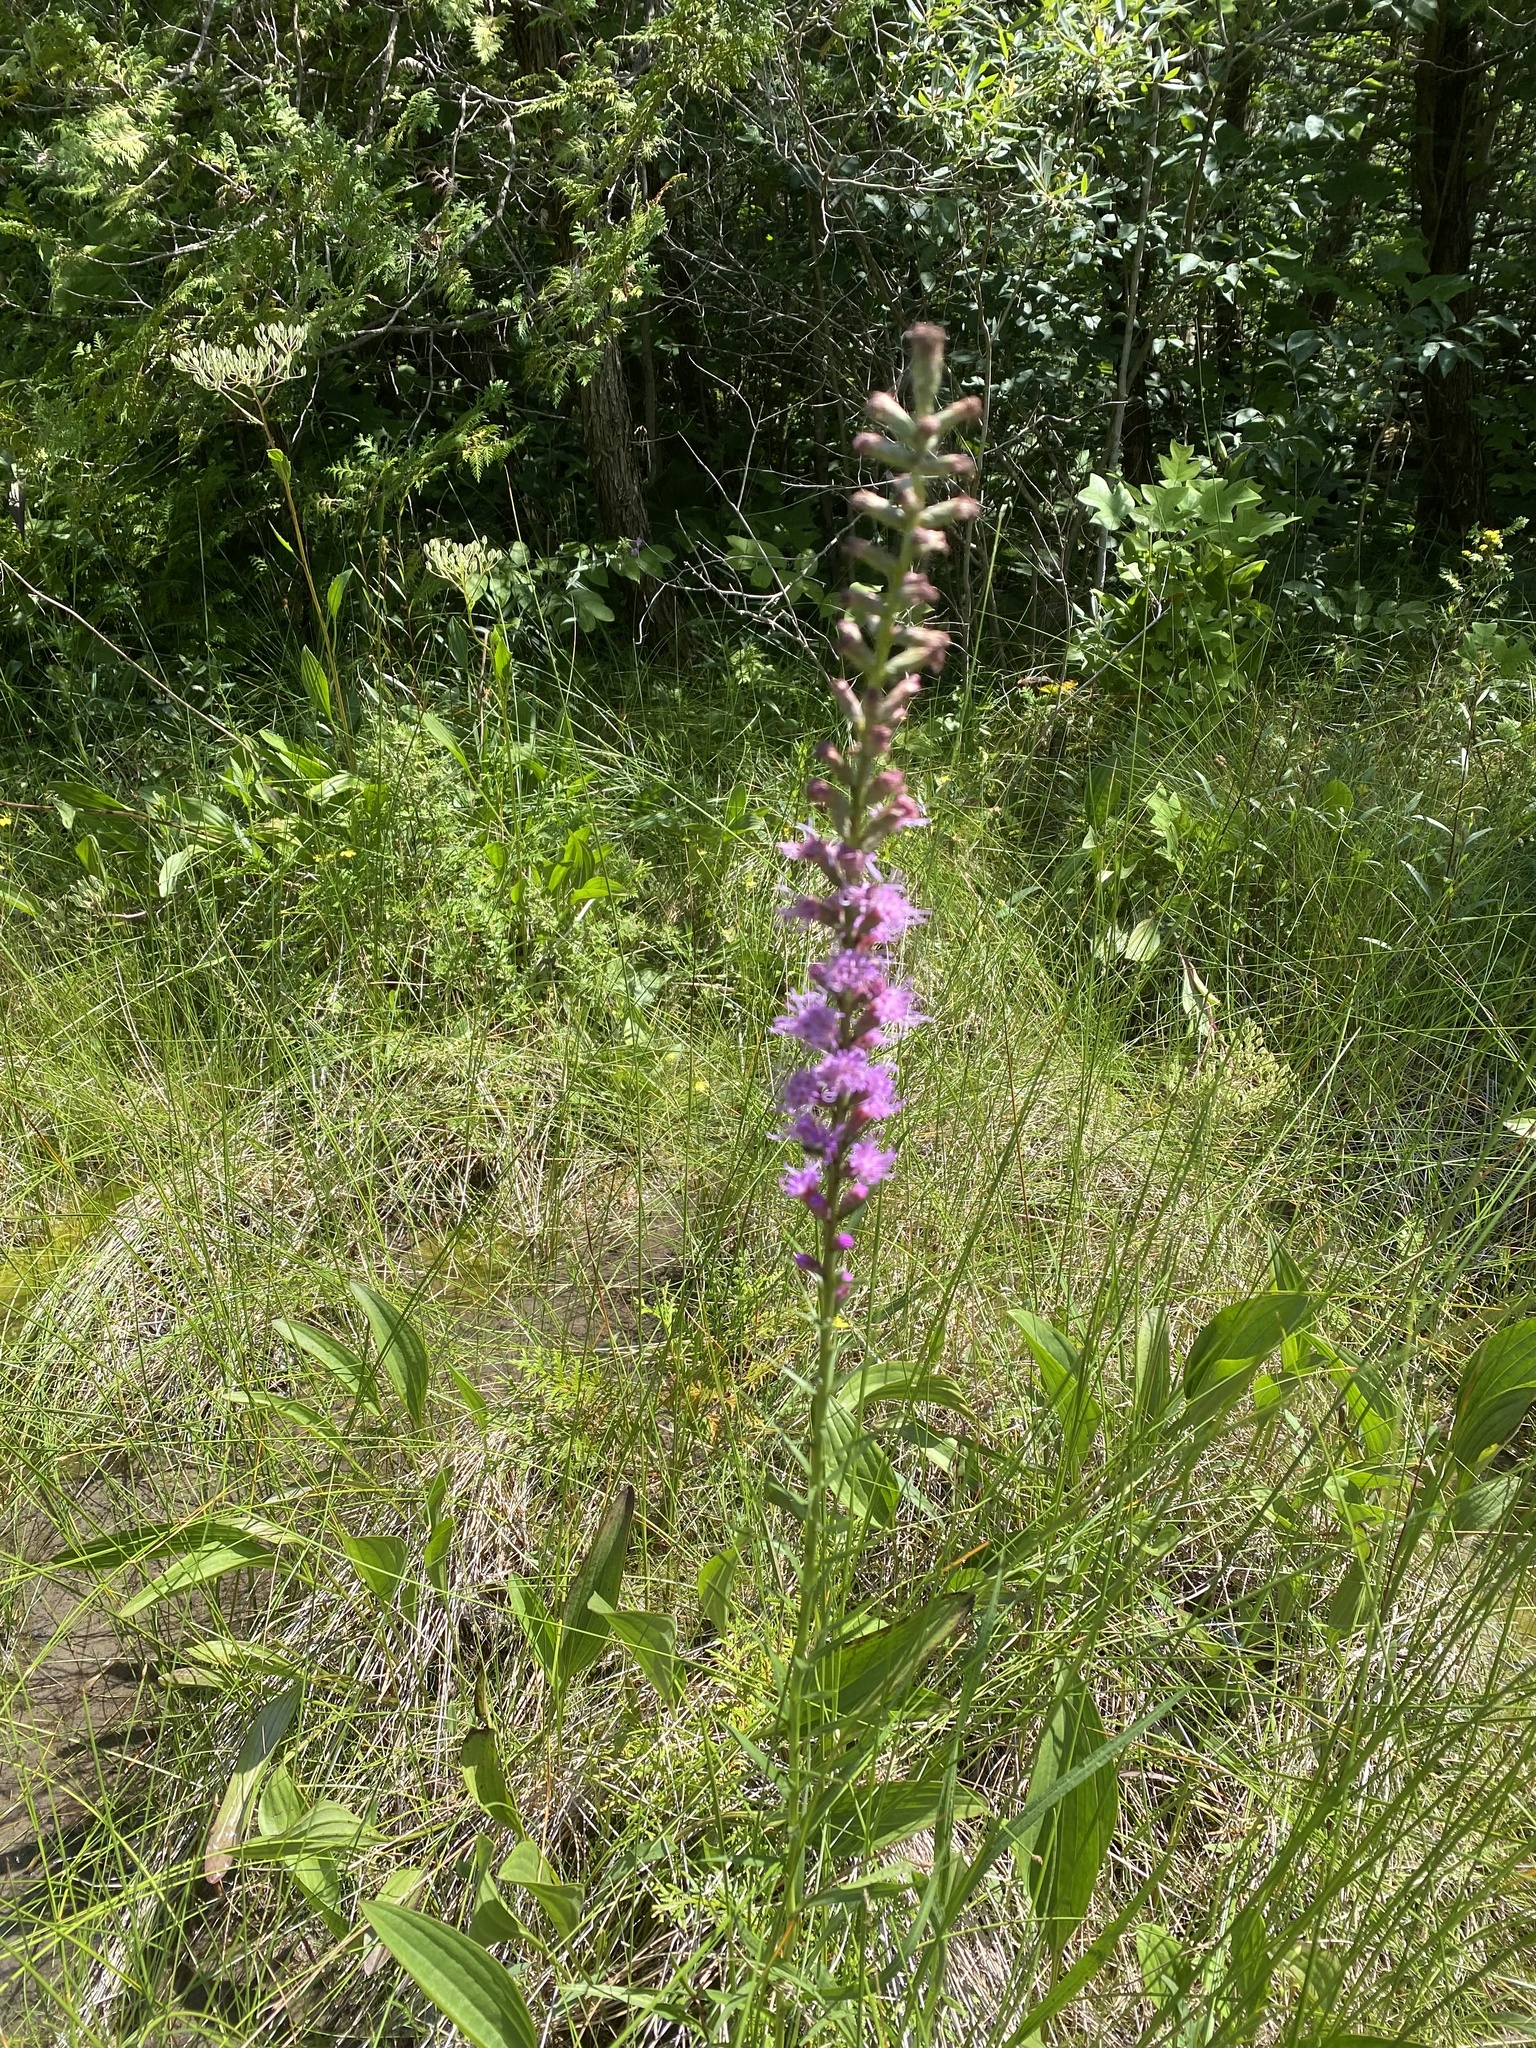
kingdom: Plantae
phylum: Tracheophyta
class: Magnoliopsida
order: Asterales
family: Asteraceae
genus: Liatris
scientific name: Liatris spicata
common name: Florist gayfeather
